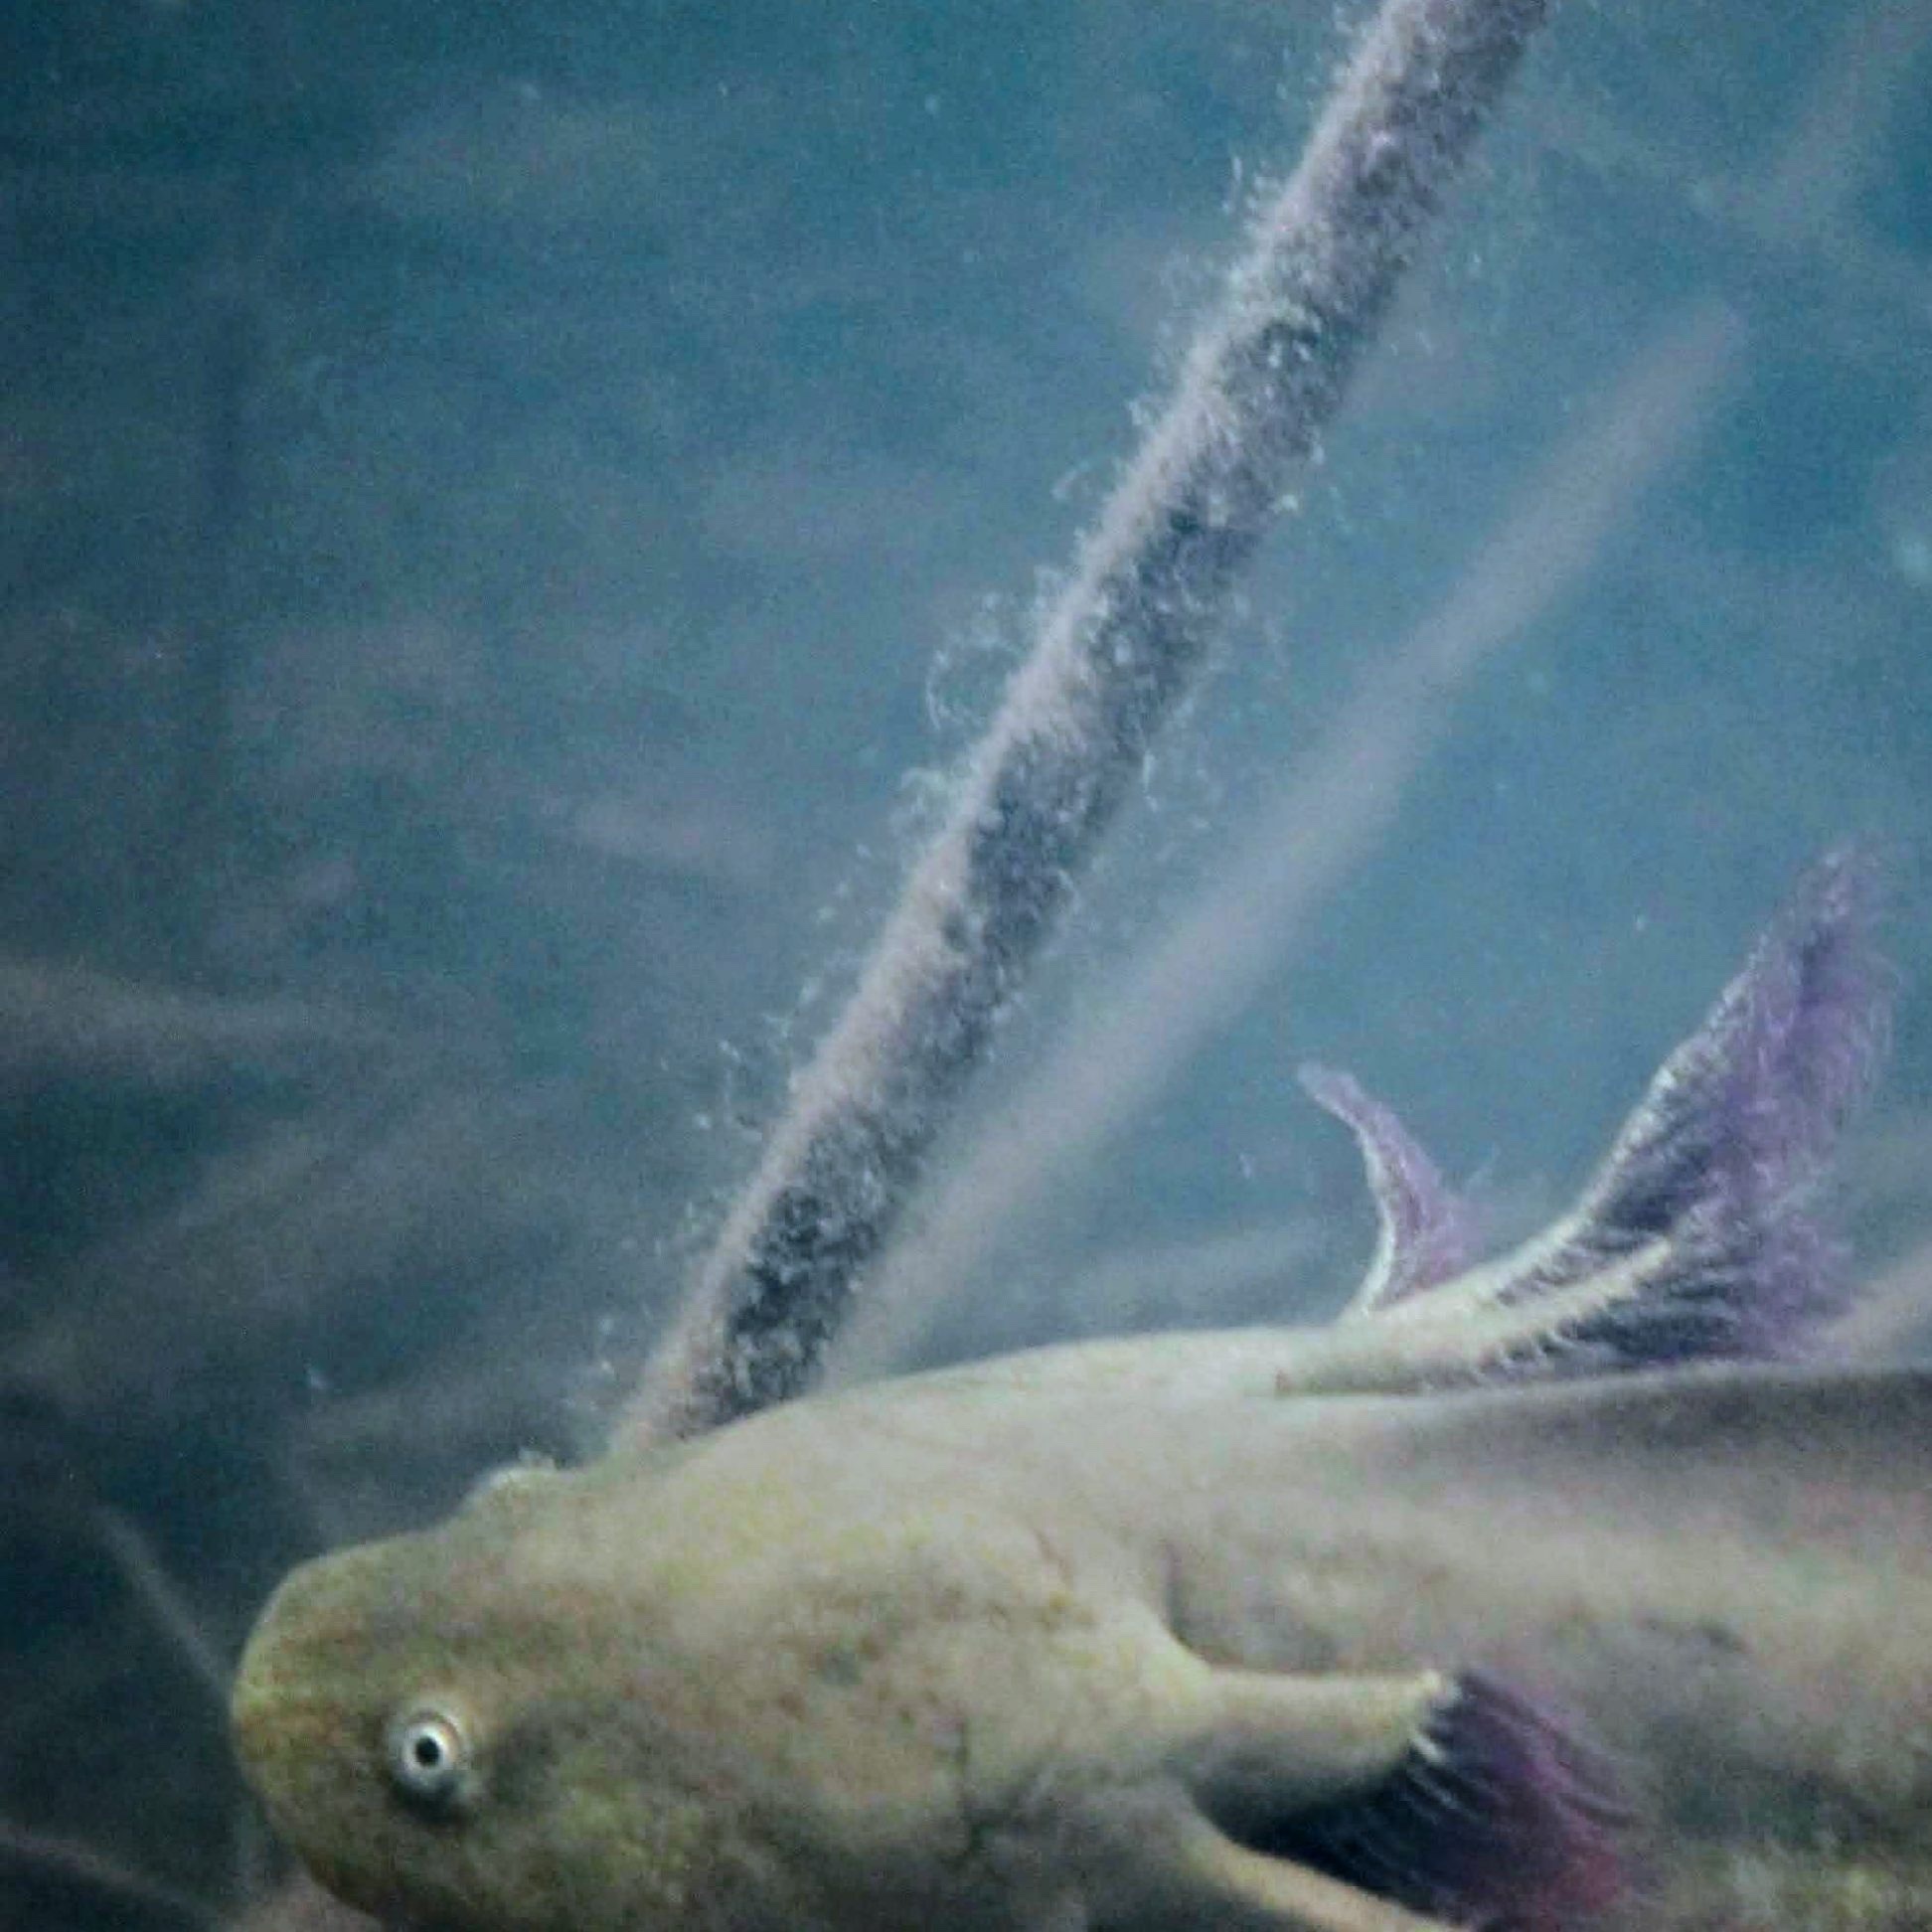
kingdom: Animalia
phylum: Chordata
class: Amphibia
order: Caudata
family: Ambystomatidae
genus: Ambystoma
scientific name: Ambystoma mavortium
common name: Western tiger salamander
